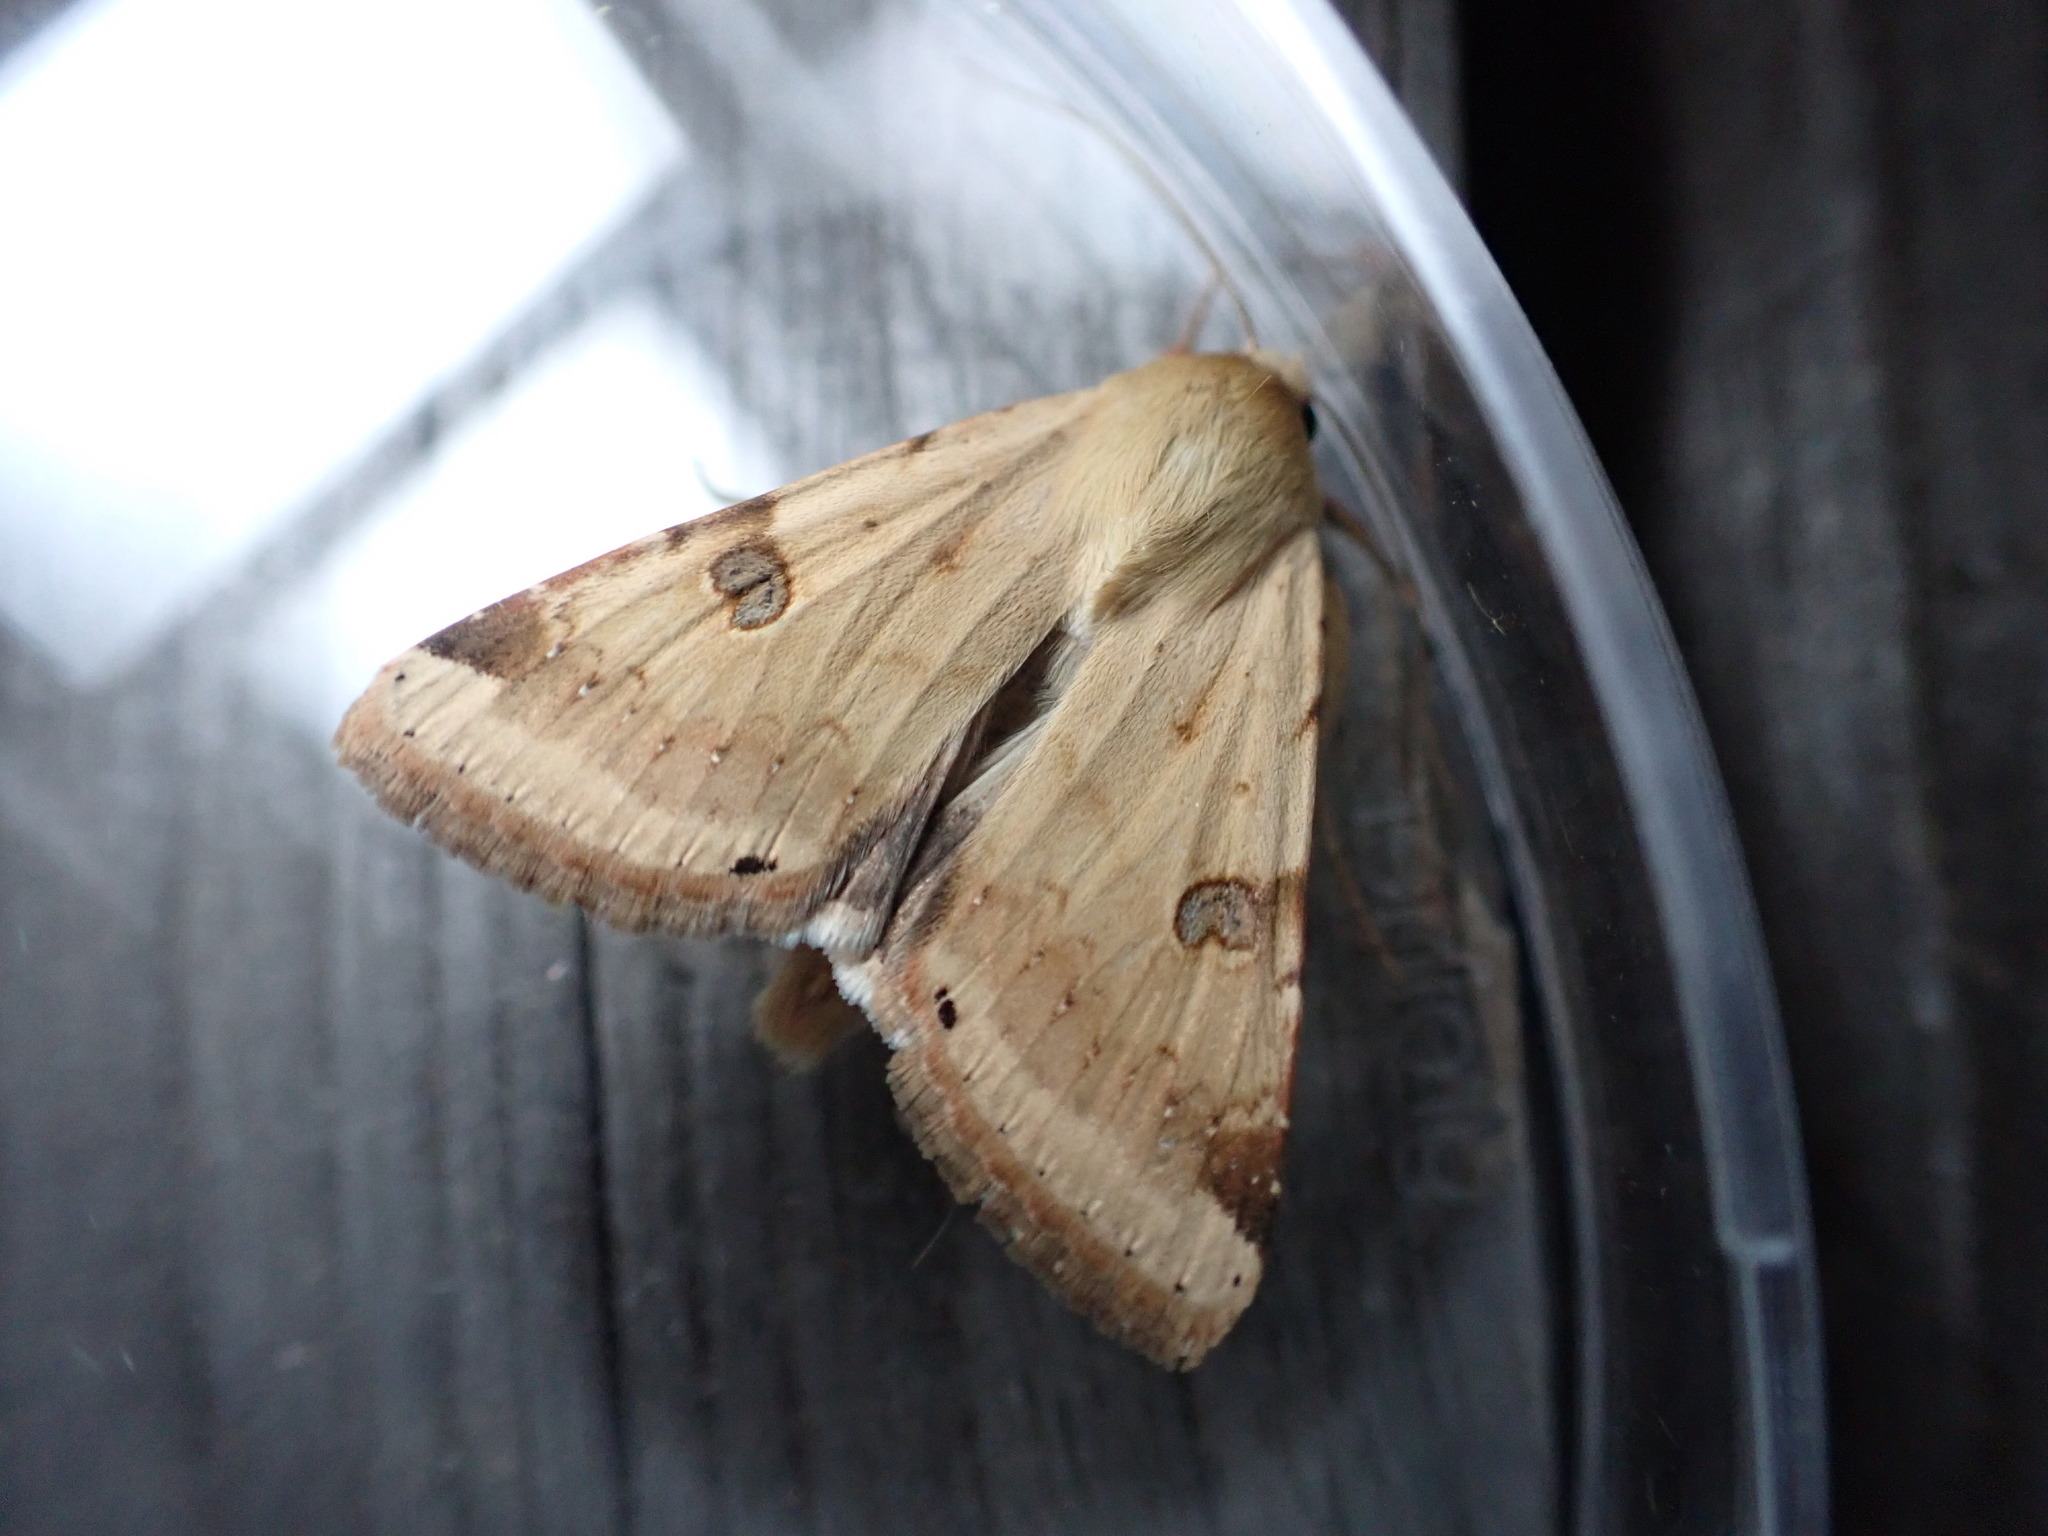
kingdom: Animalia
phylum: Arthropoda
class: Insecta
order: Lepidoptera
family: Noctuidae
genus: Heliothis
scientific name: Heliothis peltigera
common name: Bordered straw
